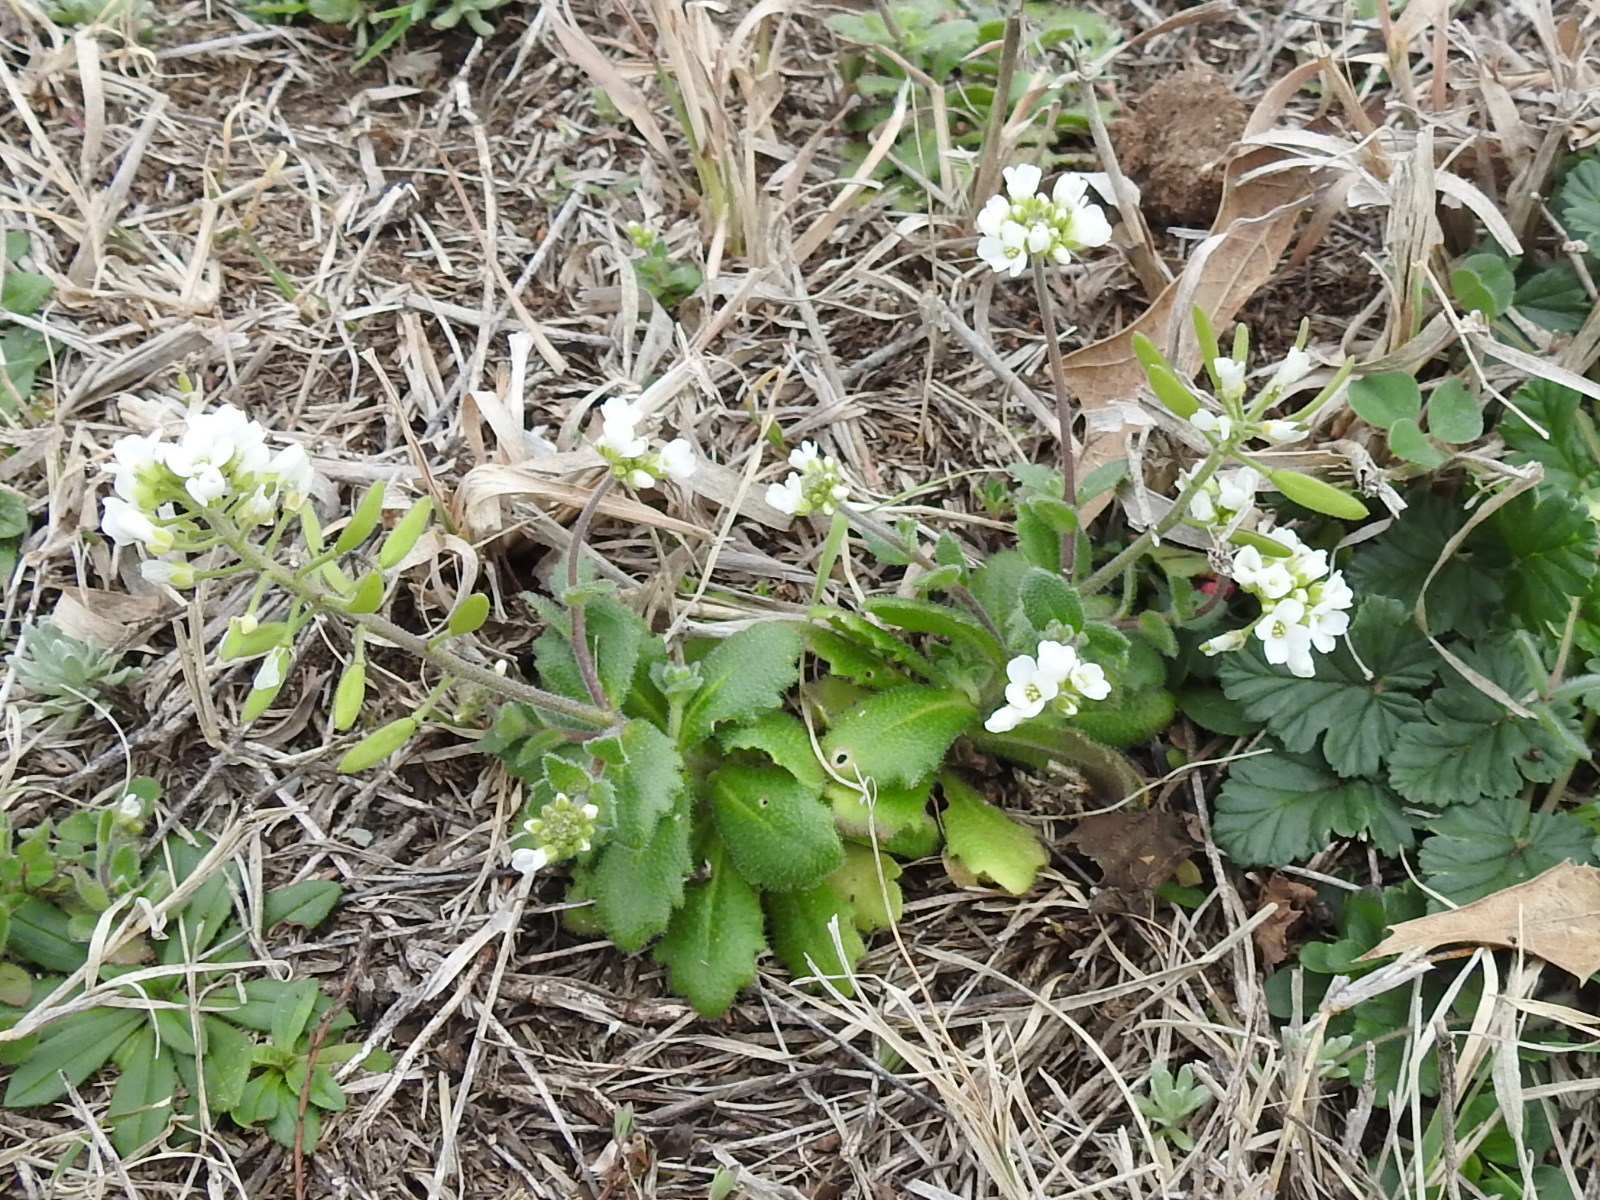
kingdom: Plantae
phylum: Tracheophyta
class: Magnoliopsida
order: Brassicales
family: Brassicaceae
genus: Tomostima
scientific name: Tomostima cuneifolia
